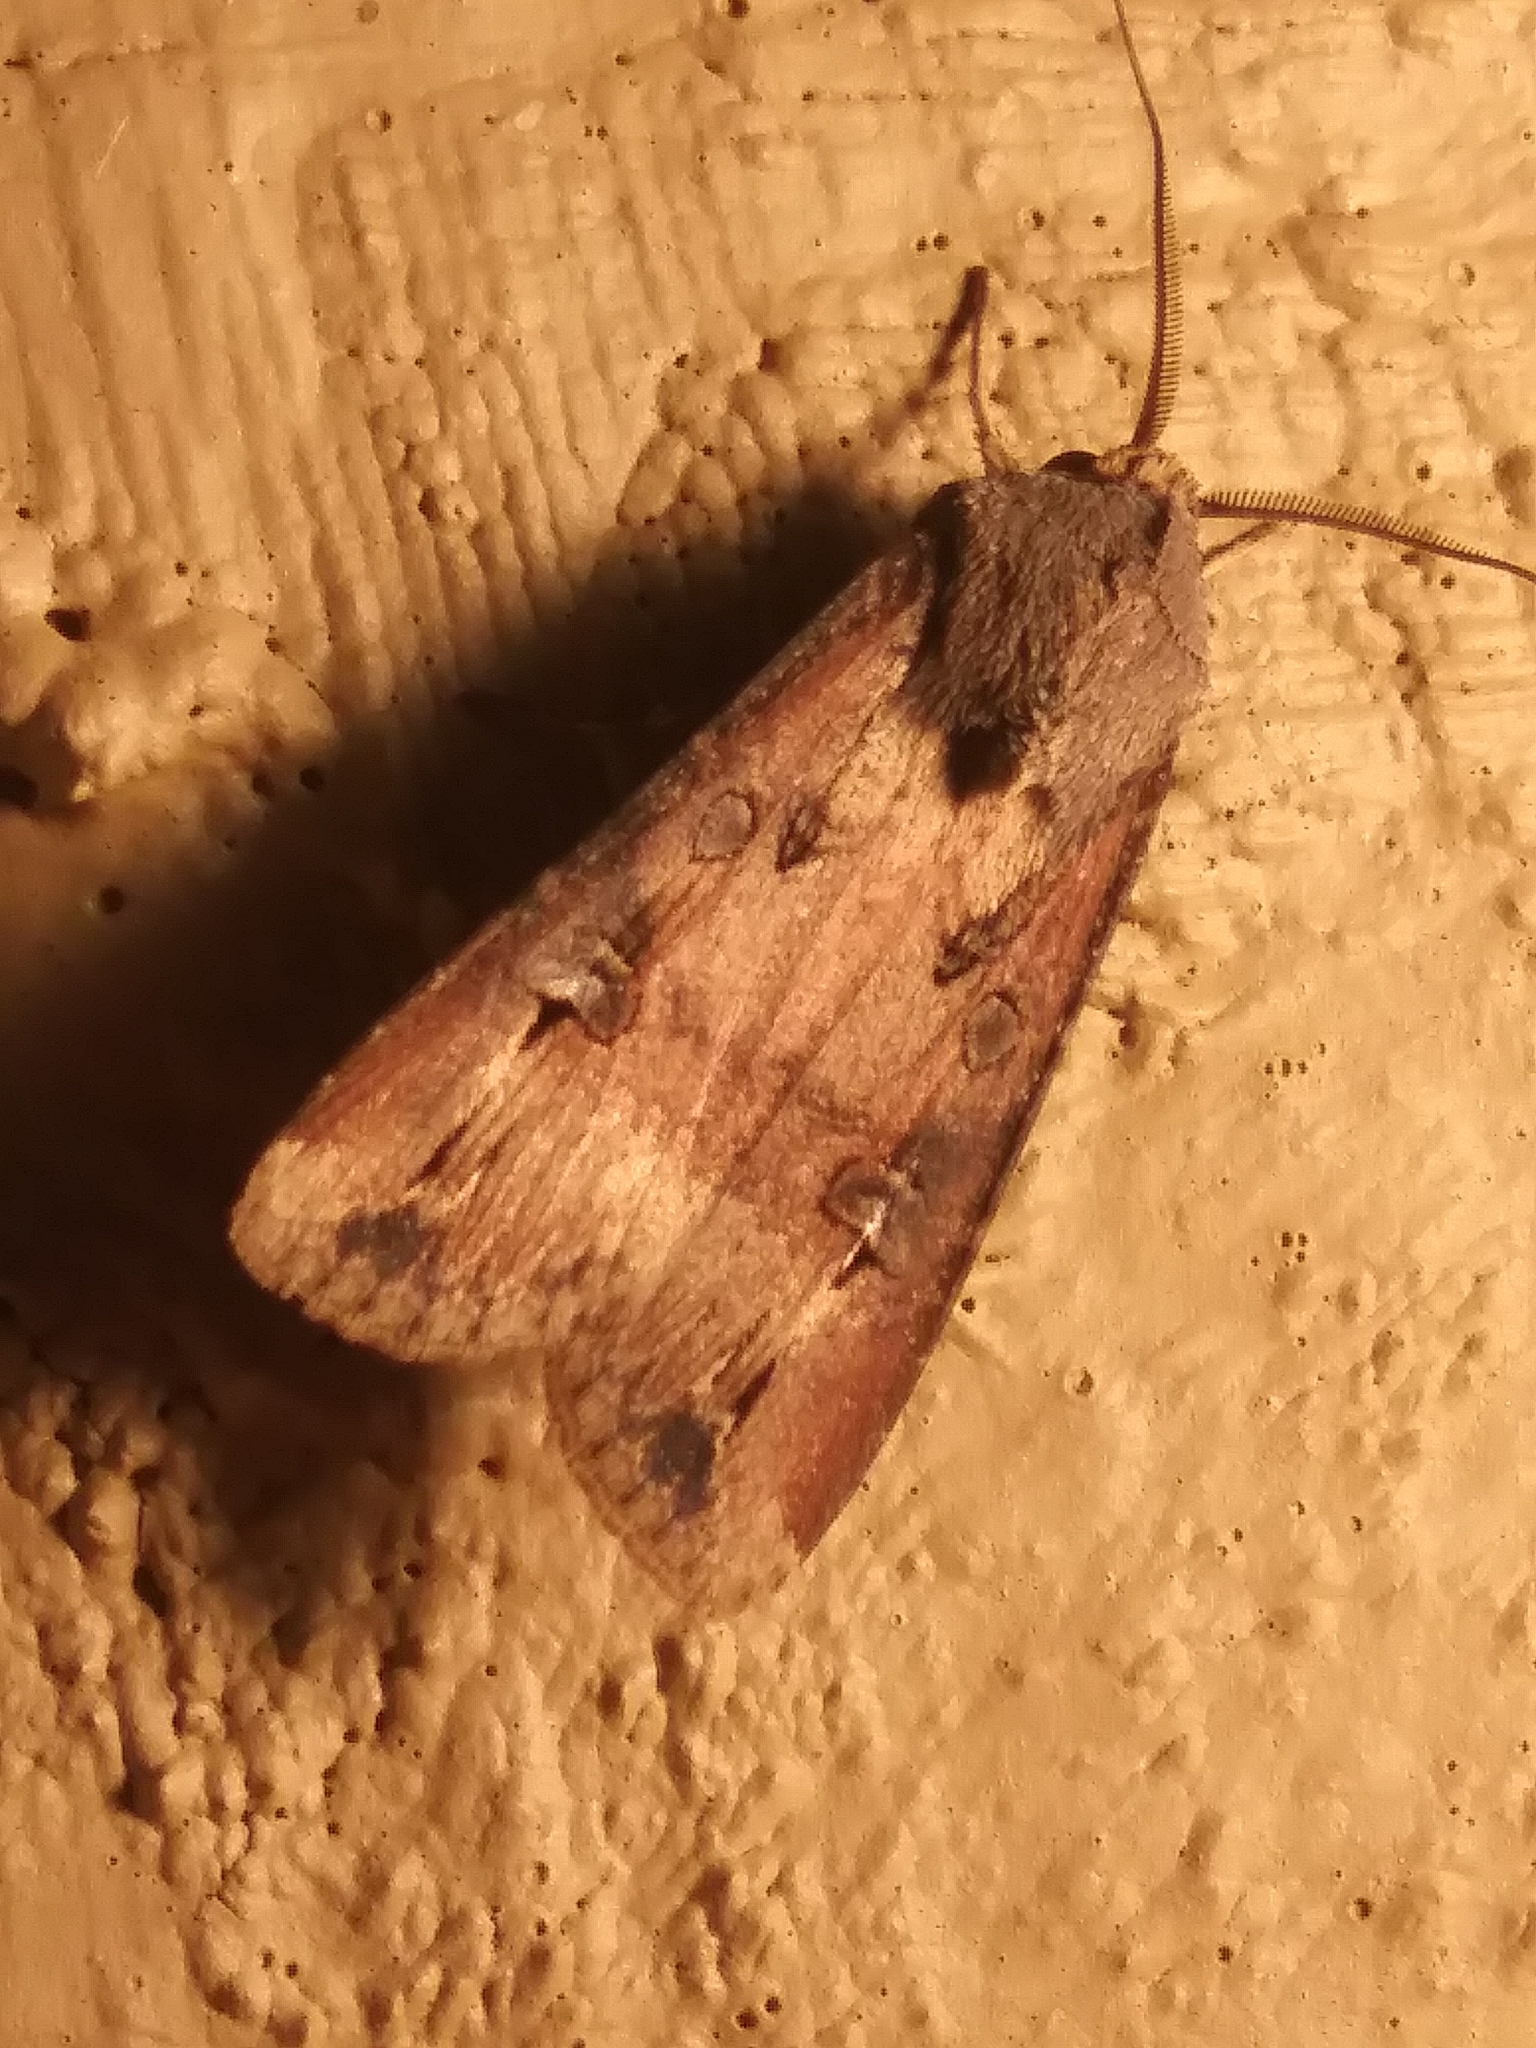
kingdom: Animalia
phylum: Arthropoda
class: Insecta
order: Lepidoptera
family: Noctuidae
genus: Agrotis
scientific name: Agrotis ipsilon
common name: Dark sword-grass
